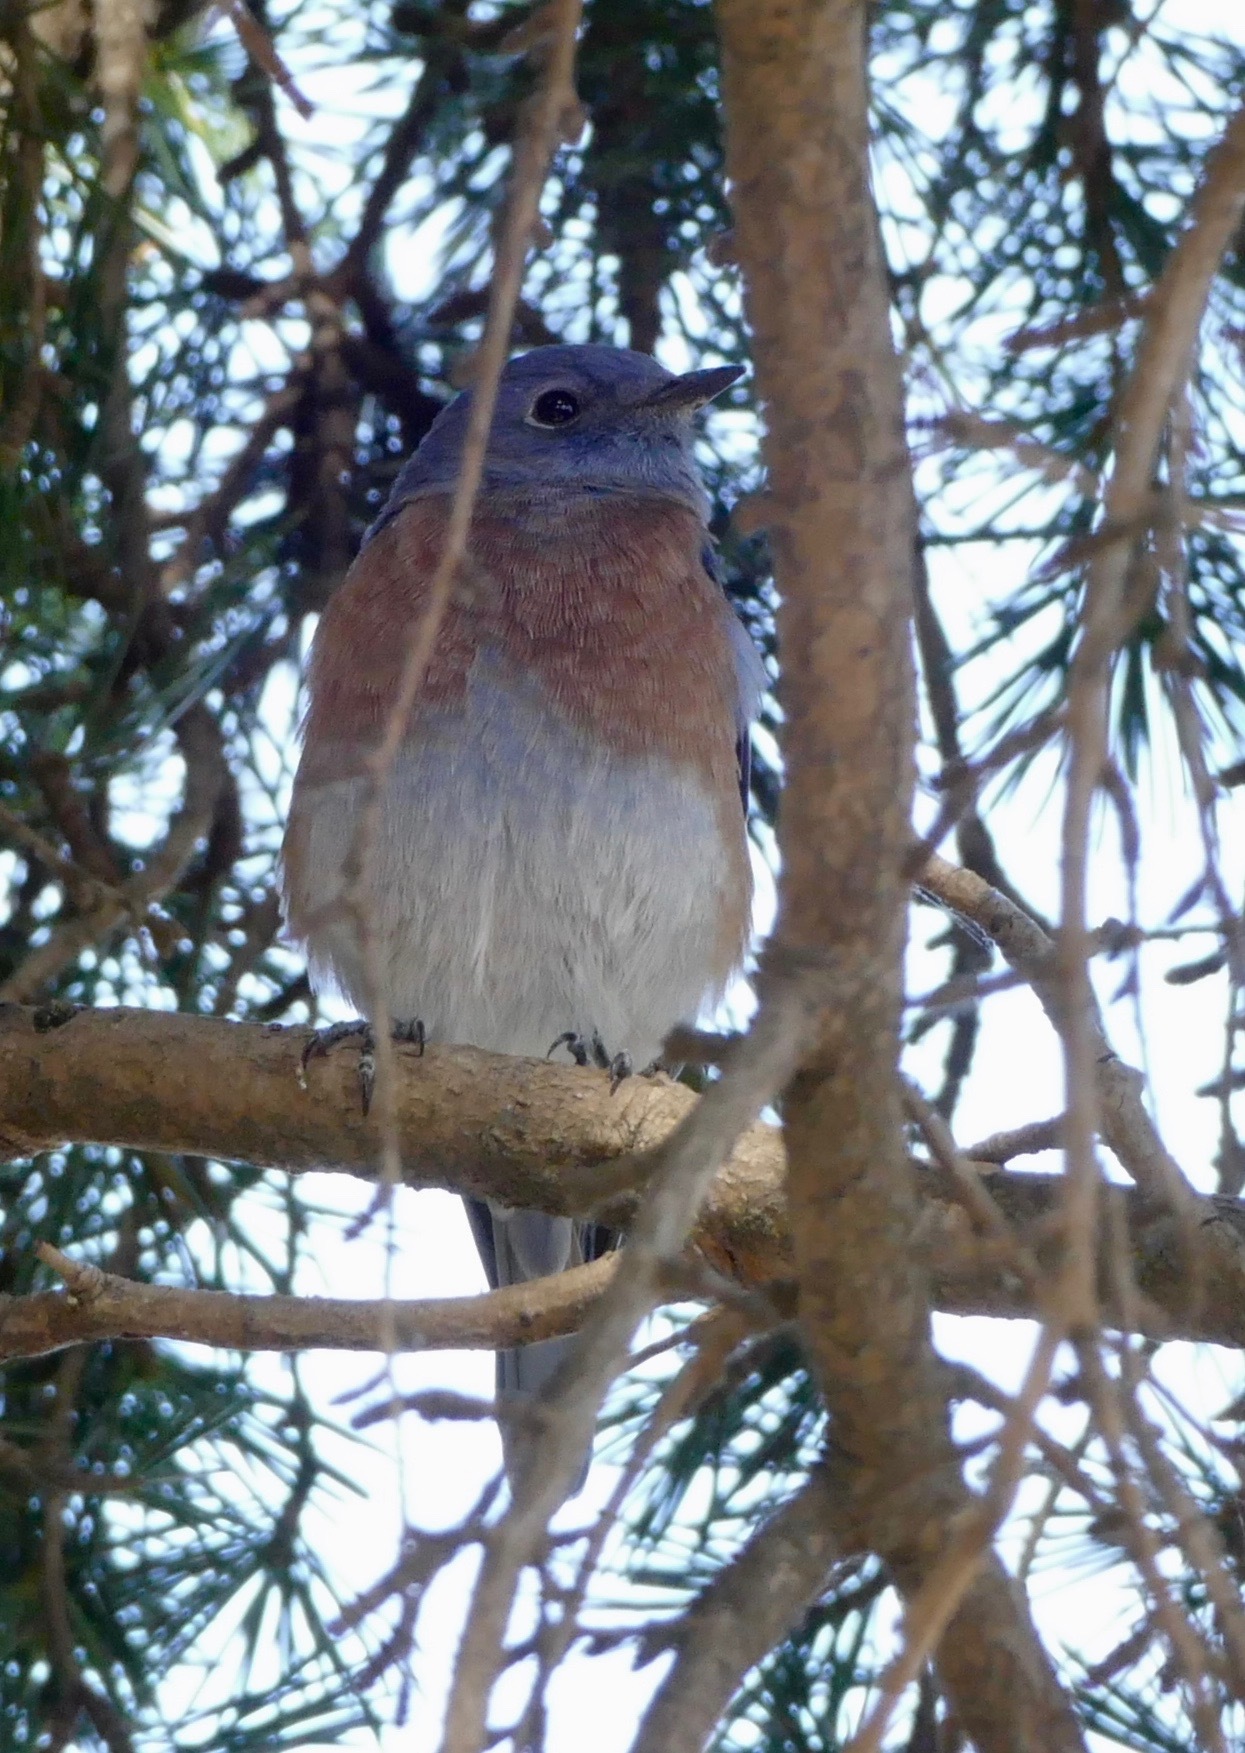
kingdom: Animalia
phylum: Chordata
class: Aves
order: Passeriformes
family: Turdidae
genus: Sialia
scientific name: Sialia mexicana
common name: Western bluebird
